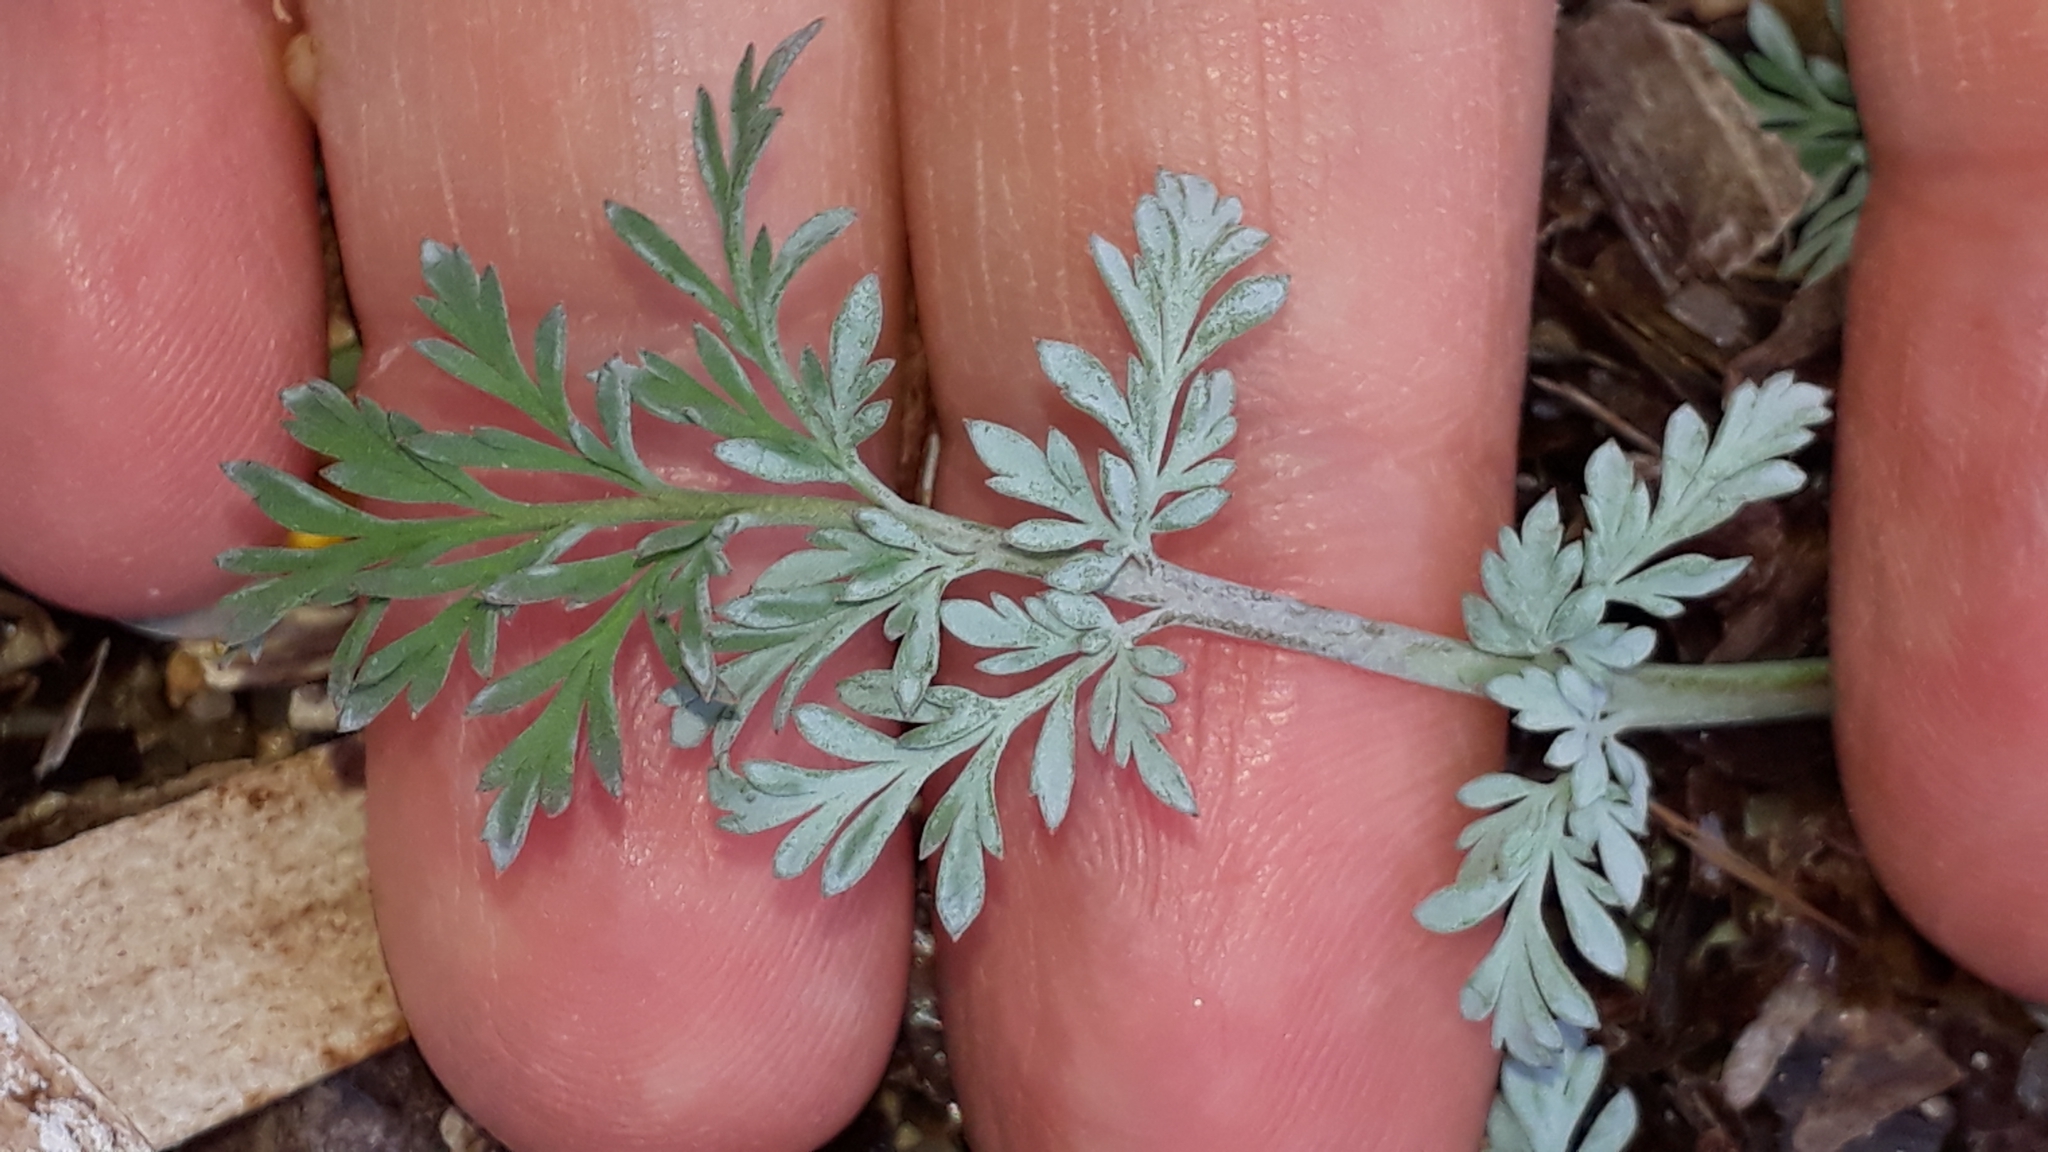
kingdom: Plantae
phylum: Tracheophyta
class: Magnoliopsida
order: Ranunculales
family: Papaveraceae
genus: Hypecoum
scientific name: Hypecoum procumbens
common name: Procumbent hypecoum
